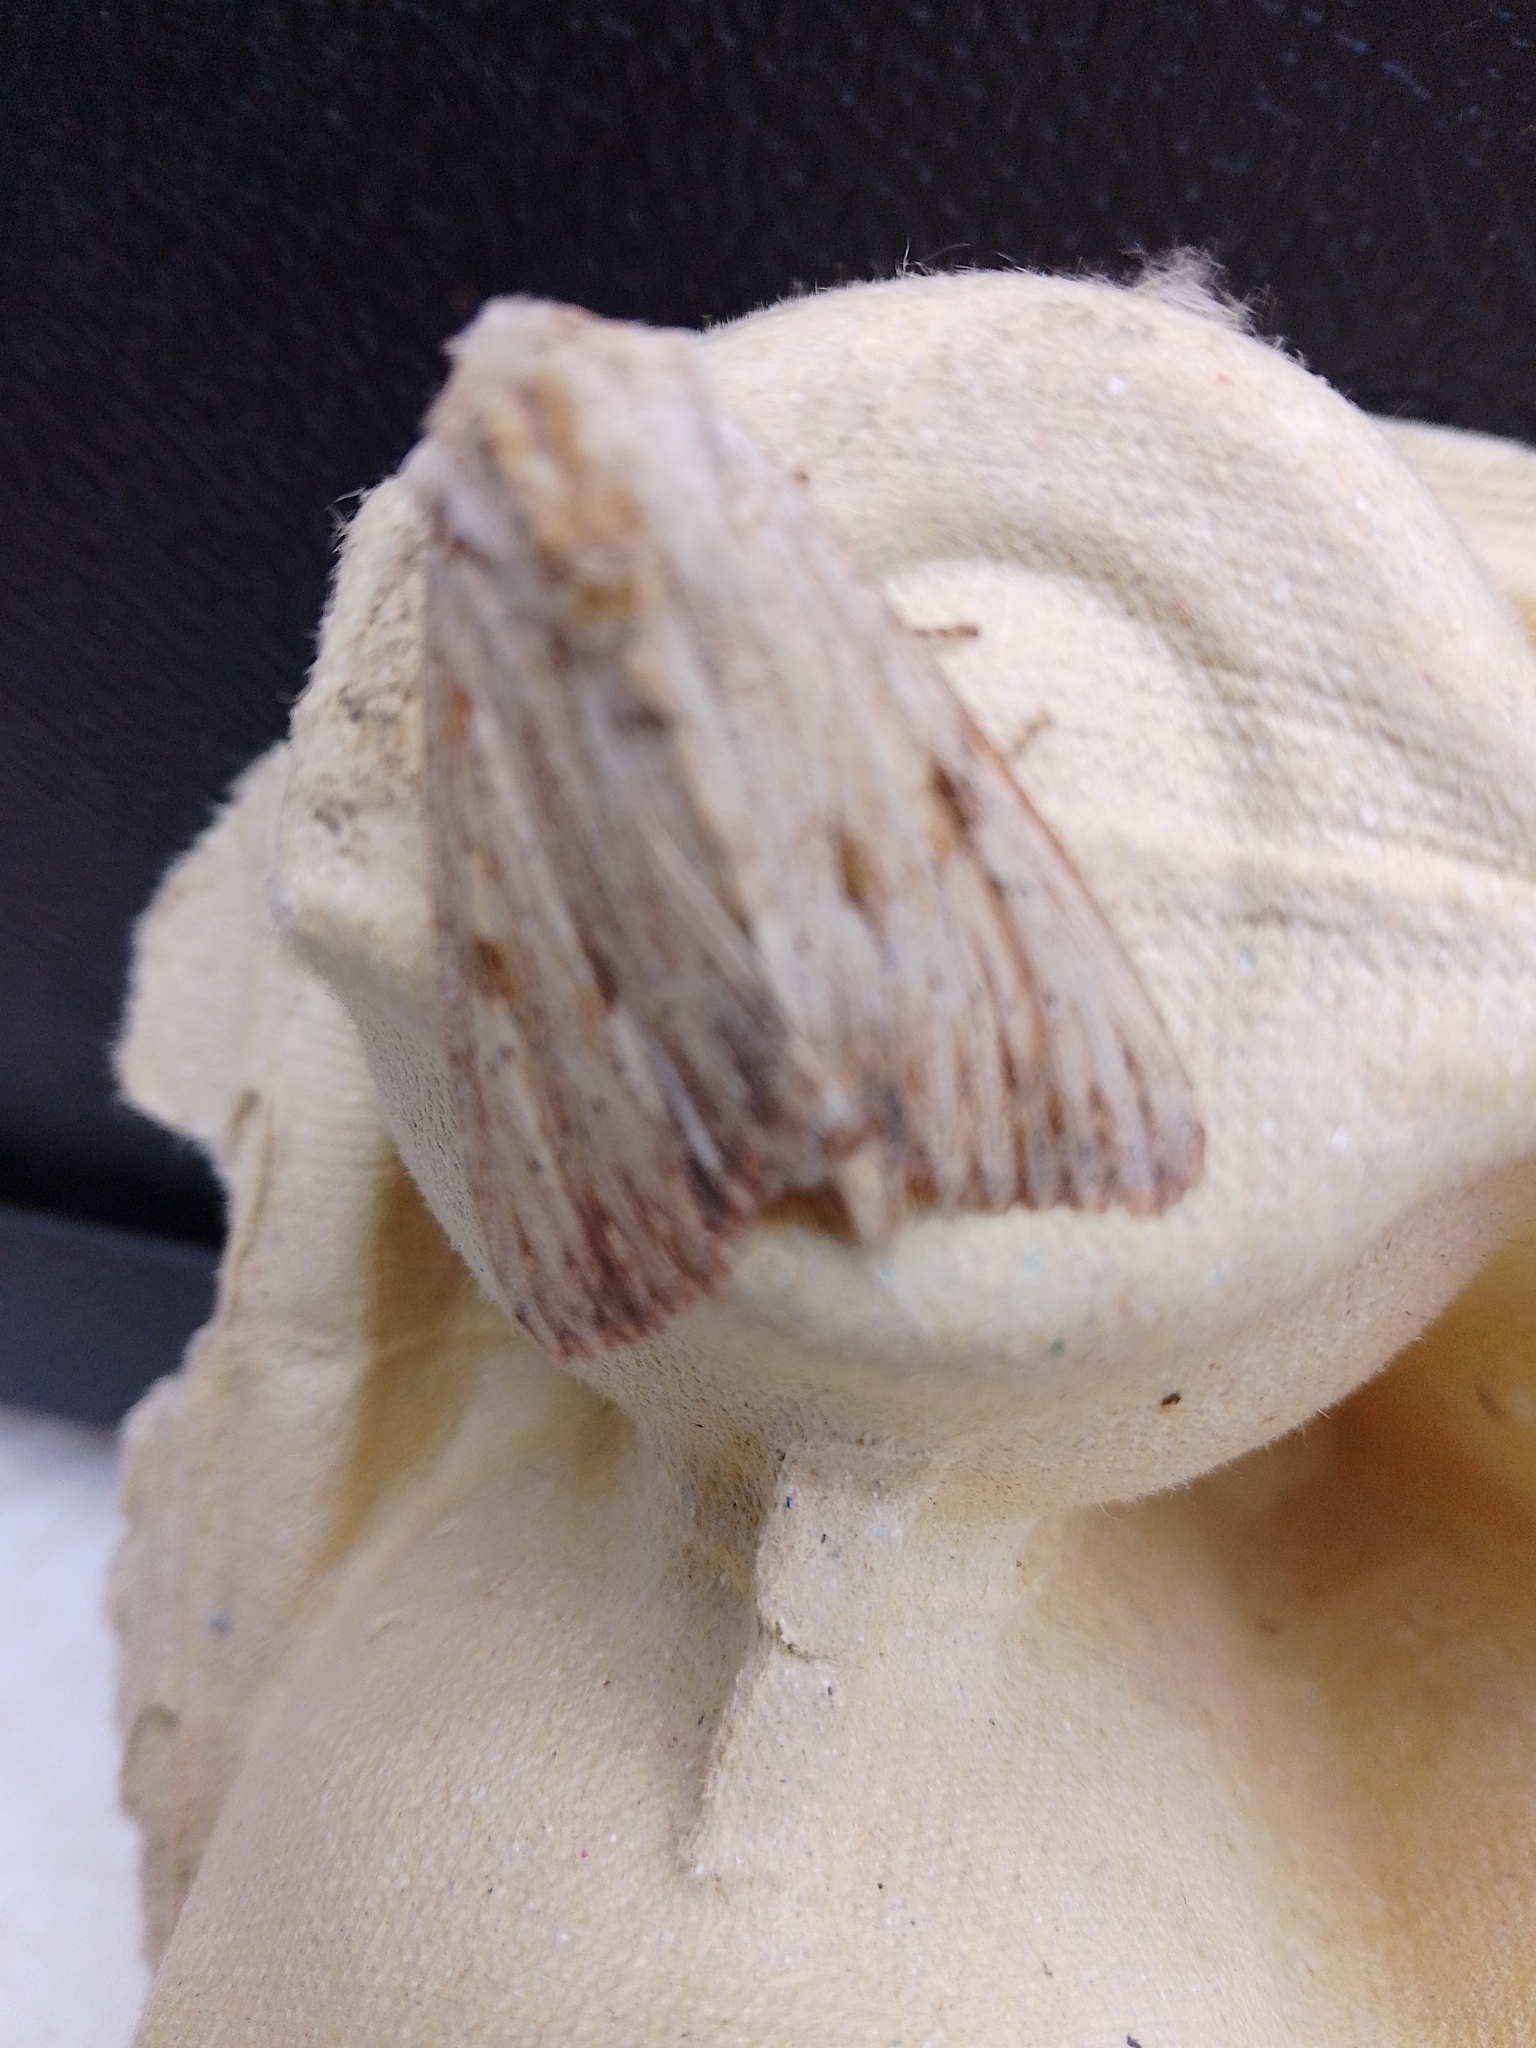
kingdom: Animalia
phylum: Arthropoda
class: Insecta
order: Lepidoptera
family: Noctuidae
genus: Apamea
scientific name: Apamea lithoxylaea
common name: Light arches
